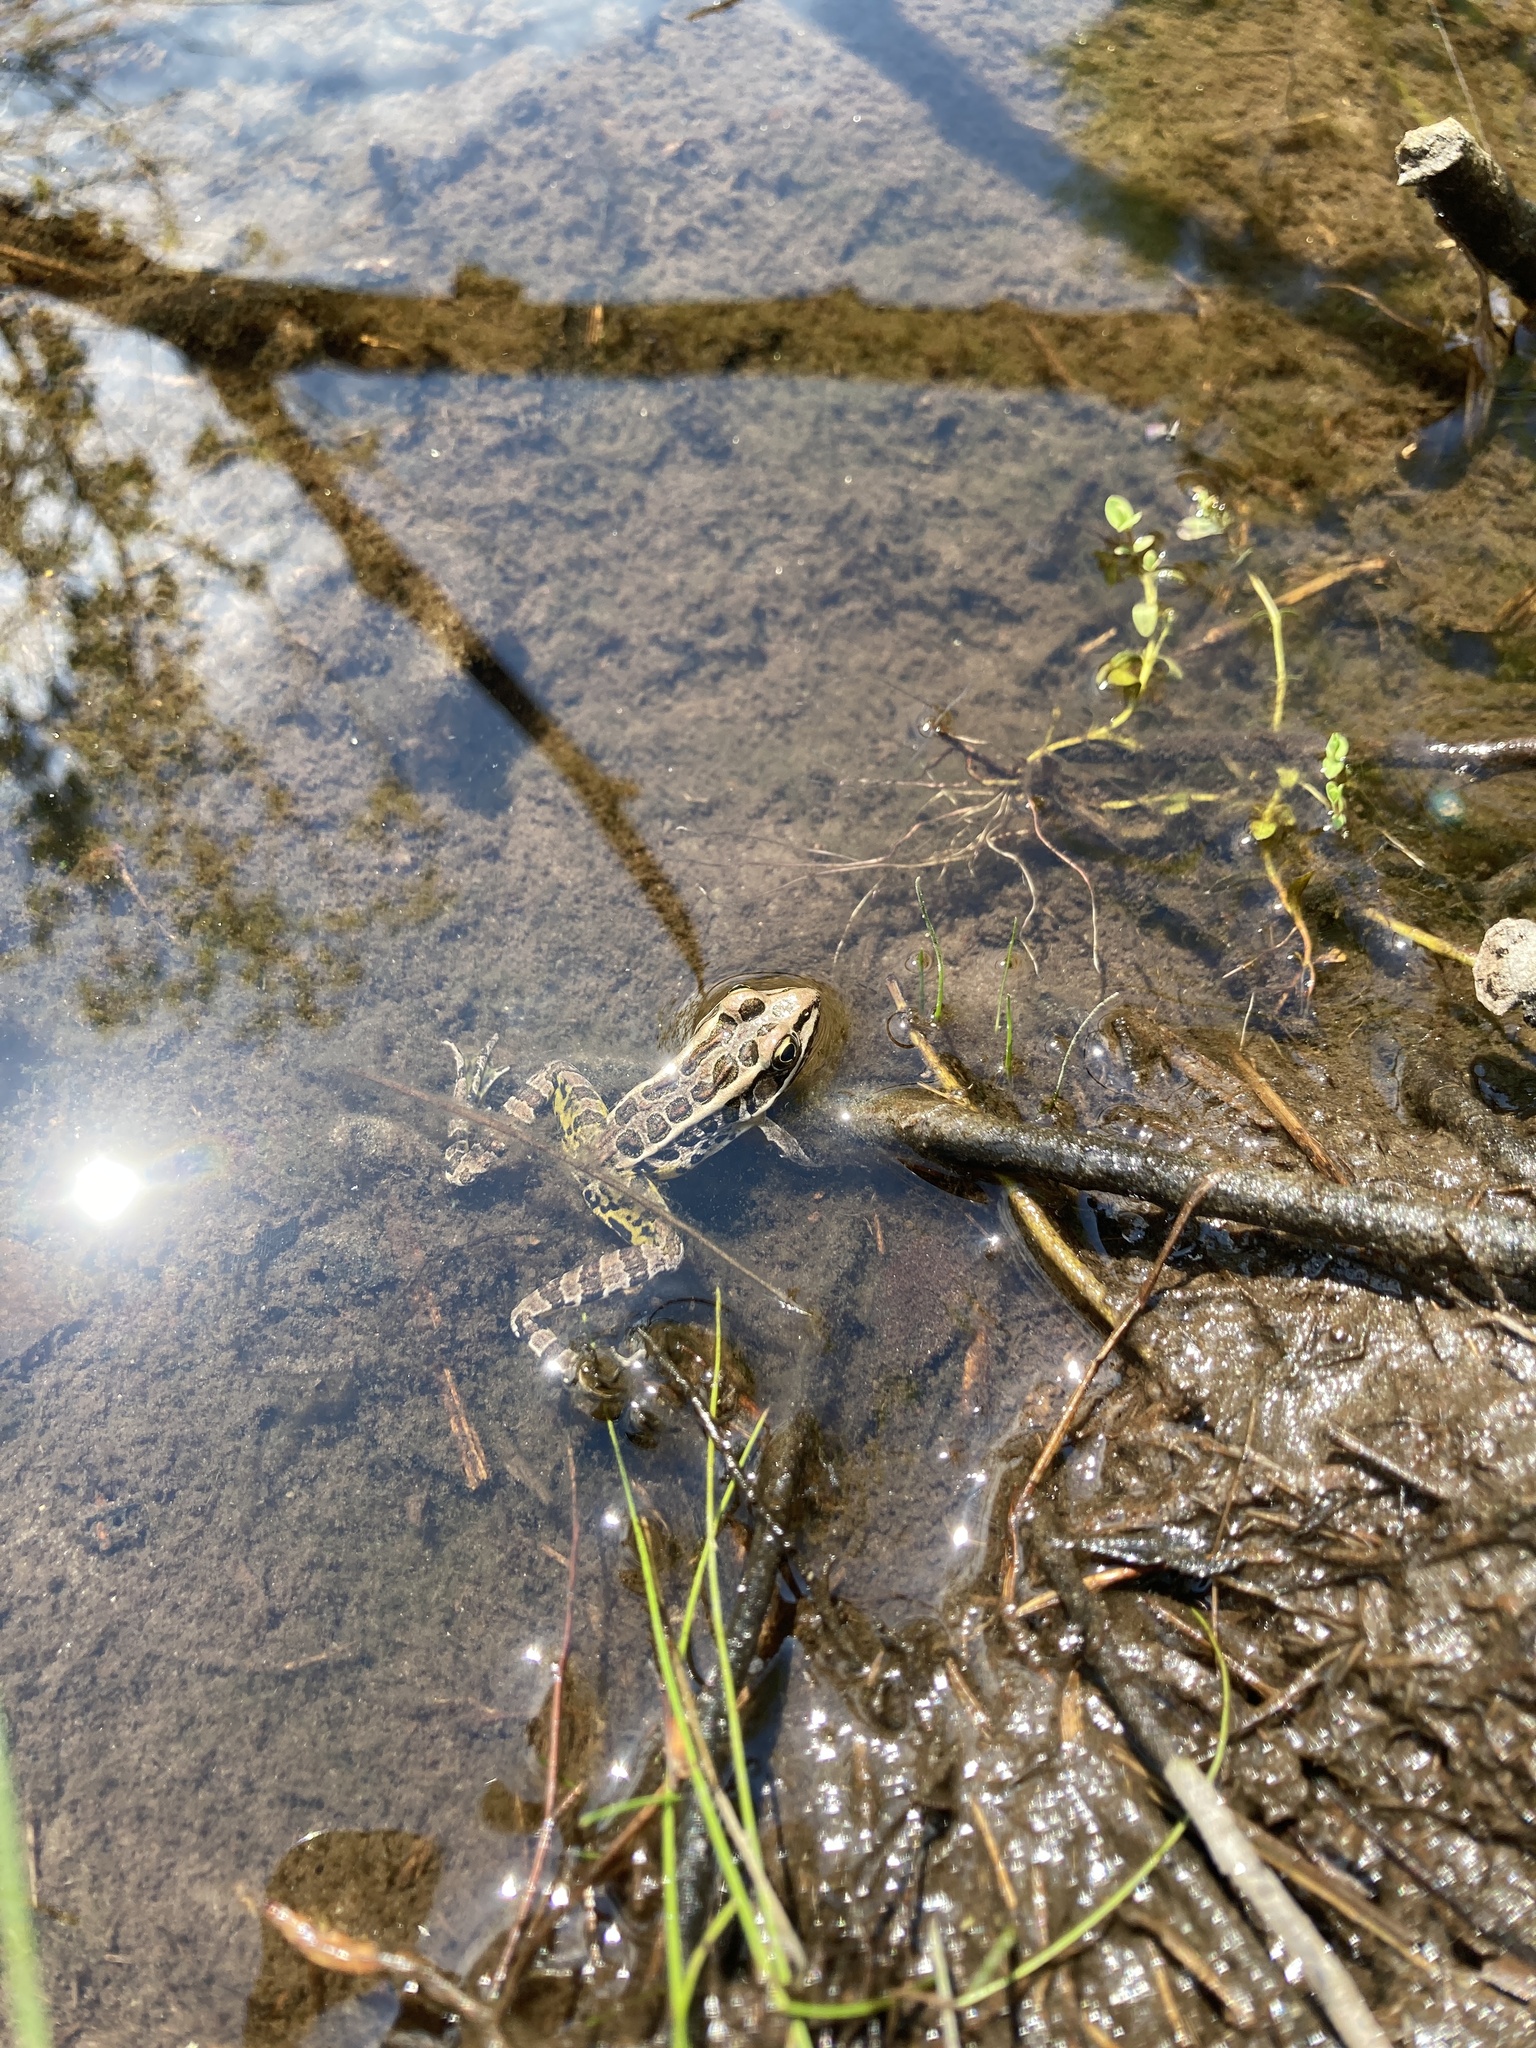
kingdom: Animalia
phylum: Chordata
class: Amphibia
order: Anura
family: Ranidae
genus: Lithobates
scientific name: Lithobates palustris
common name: Pickerel frog
